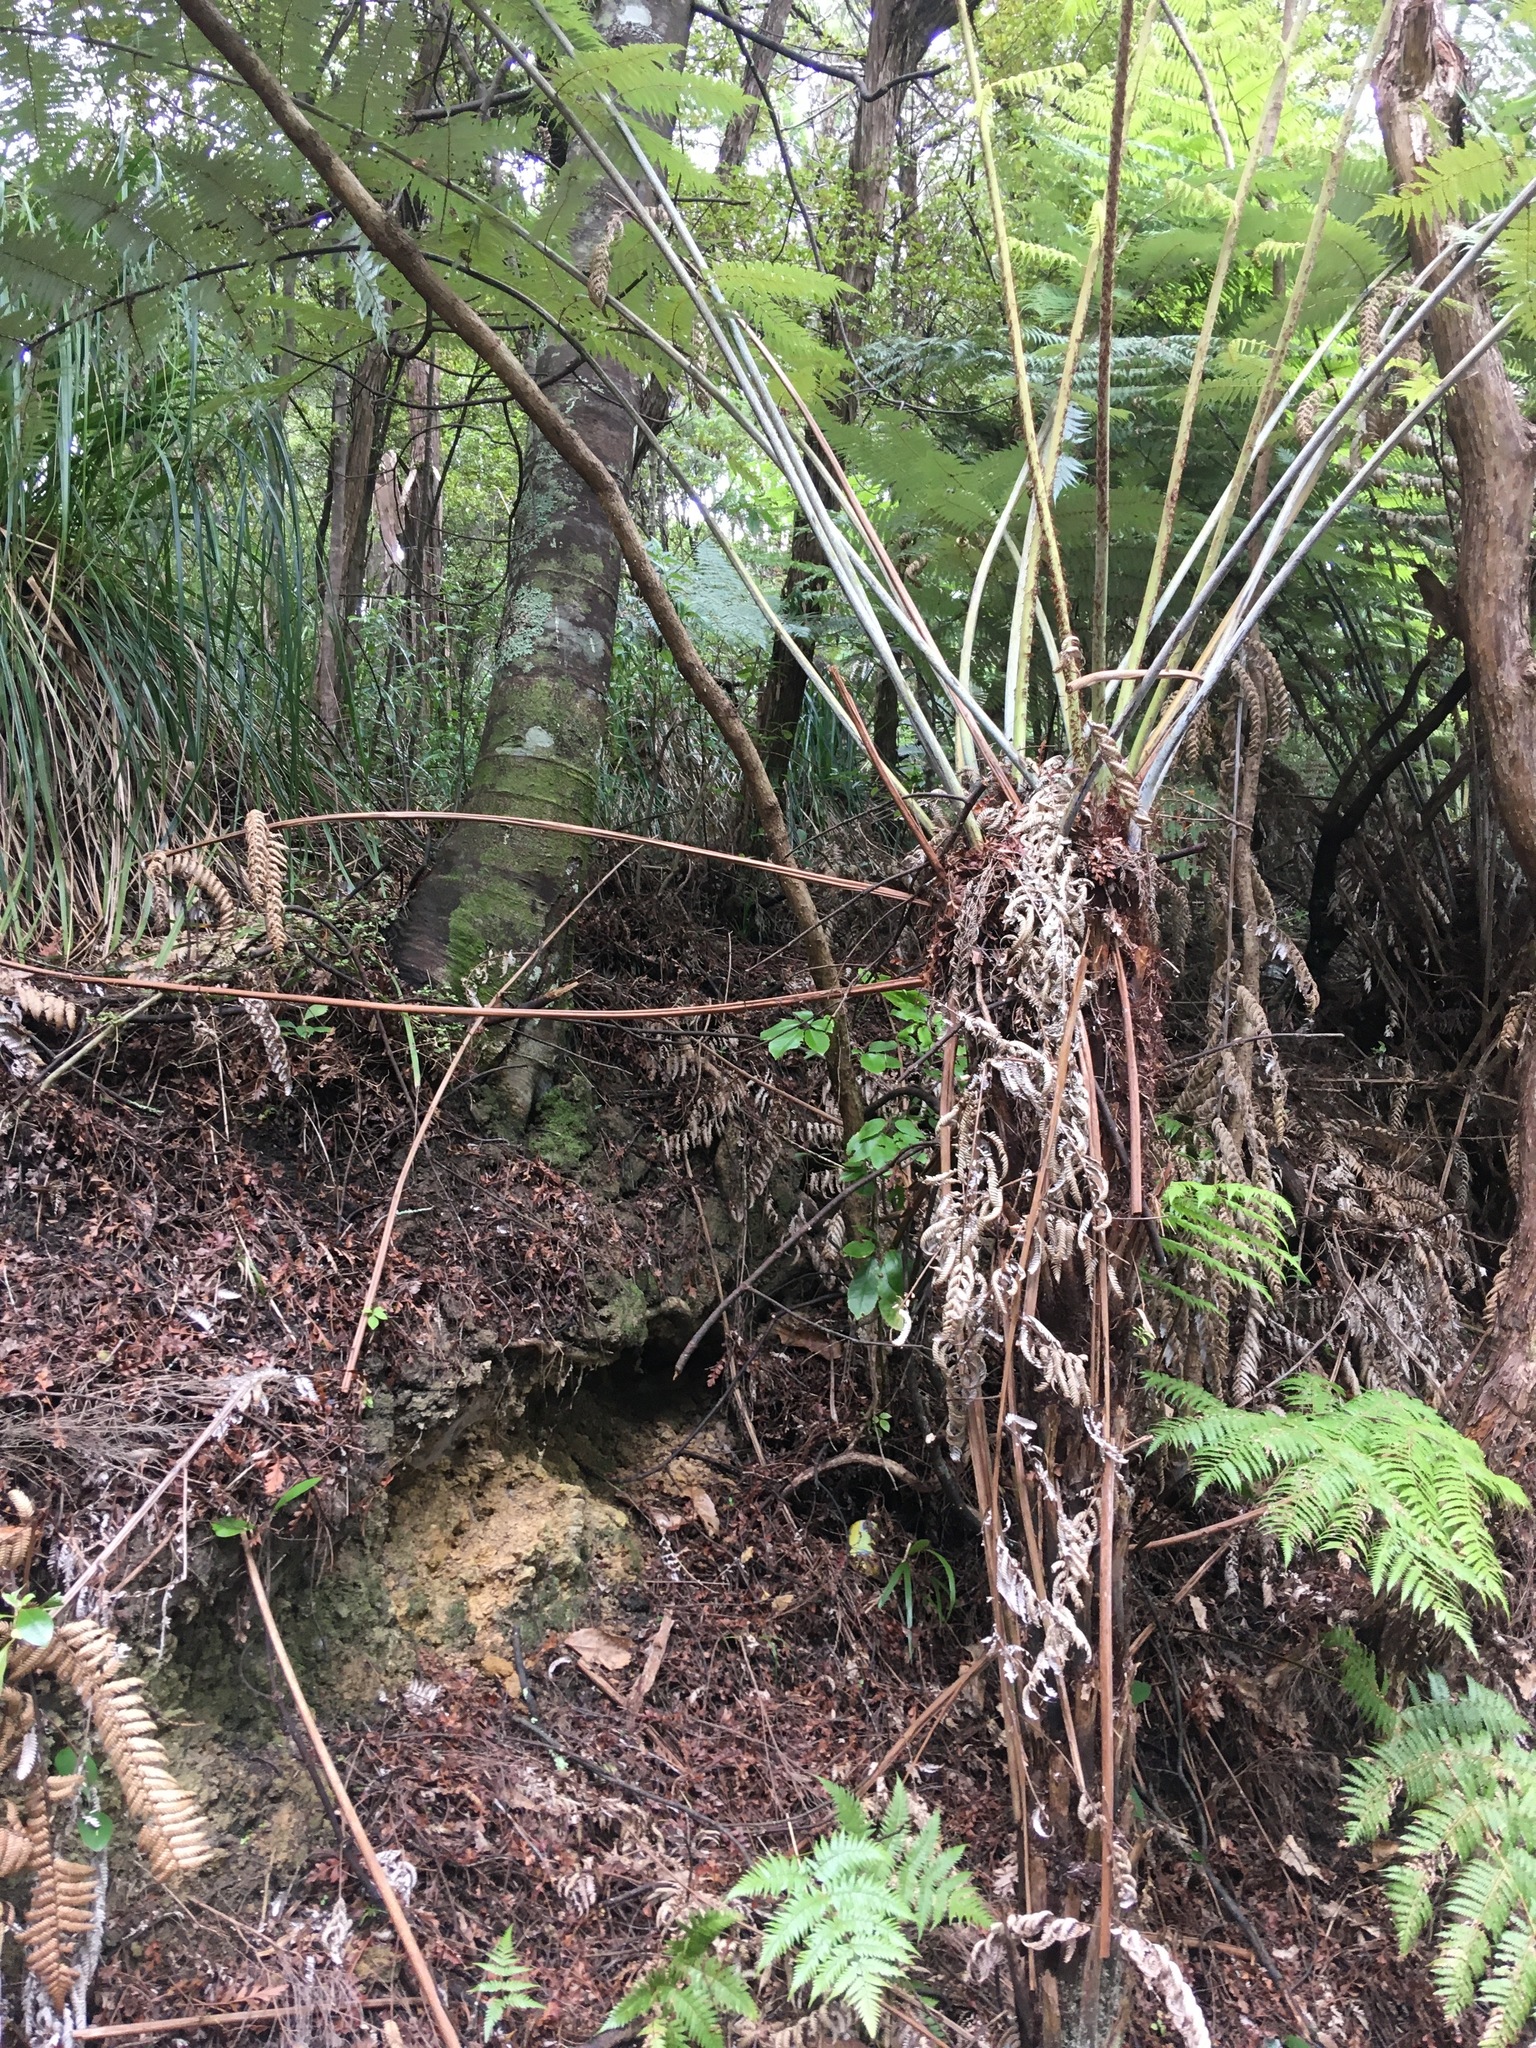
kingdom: Plantae
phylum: Tracheophyta
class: Pinopsida
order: Pinales
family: Phyllocladaceae
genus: Phyllocladus
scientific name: Phyllocladus trichomanoides
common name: Celery pine
